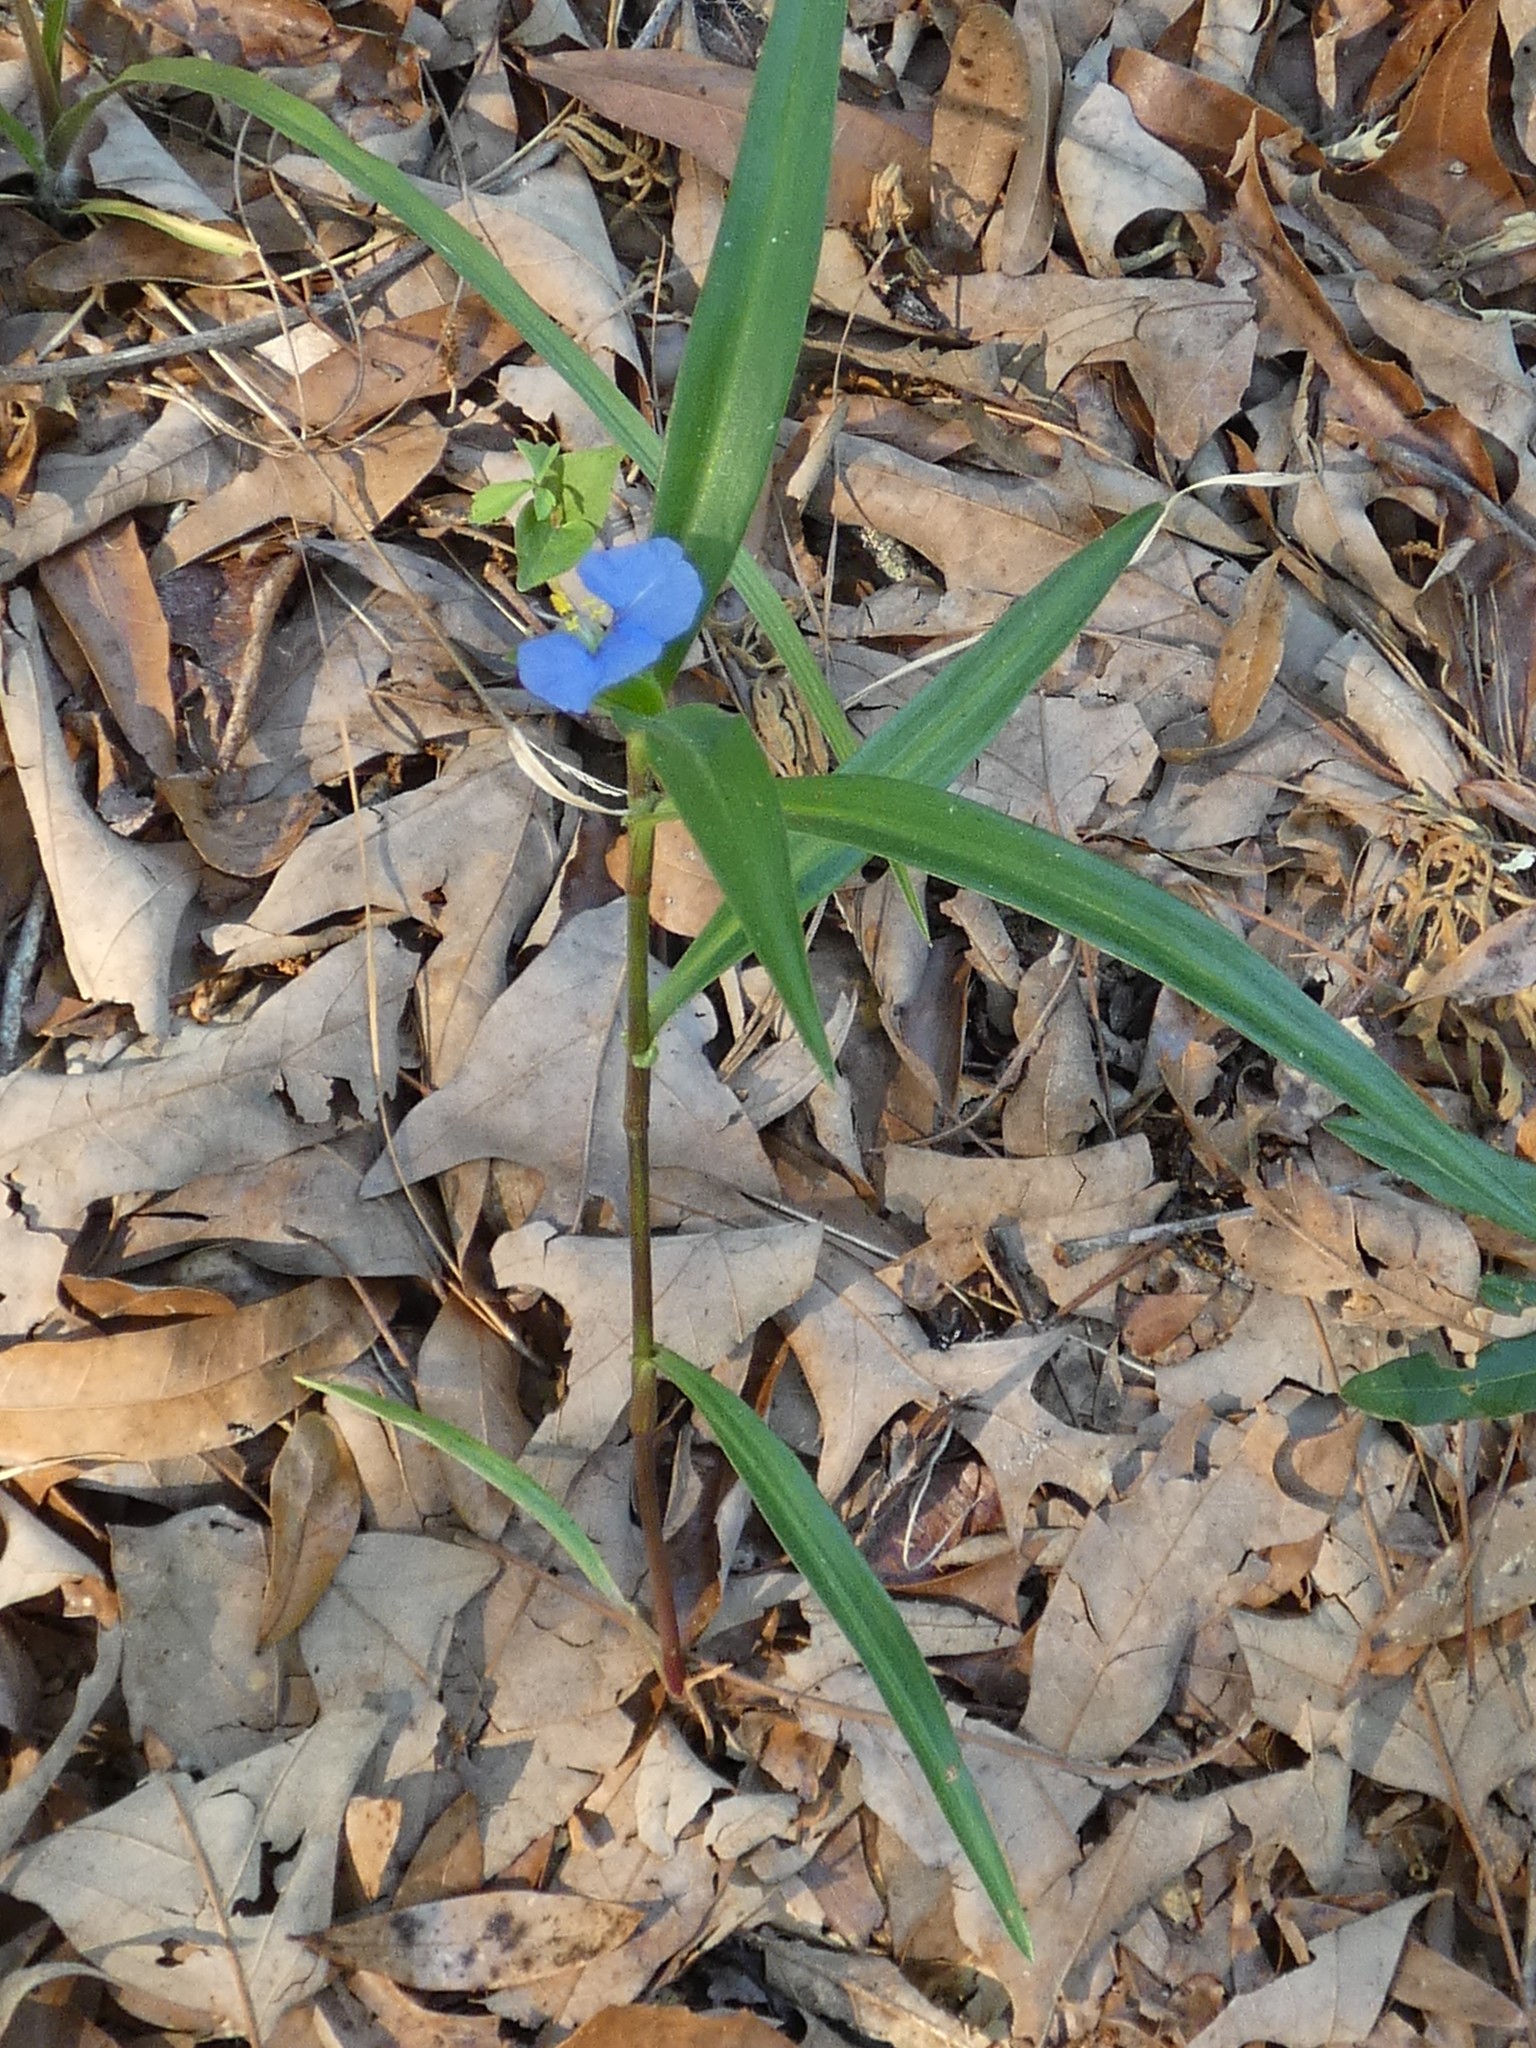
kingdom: Plantae
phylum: Tracheophyta
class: Liliopsida
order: Commelinales
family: Commelinaceae
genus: Commelina
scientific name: Commelina erecta
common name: Blousel blommetjie
